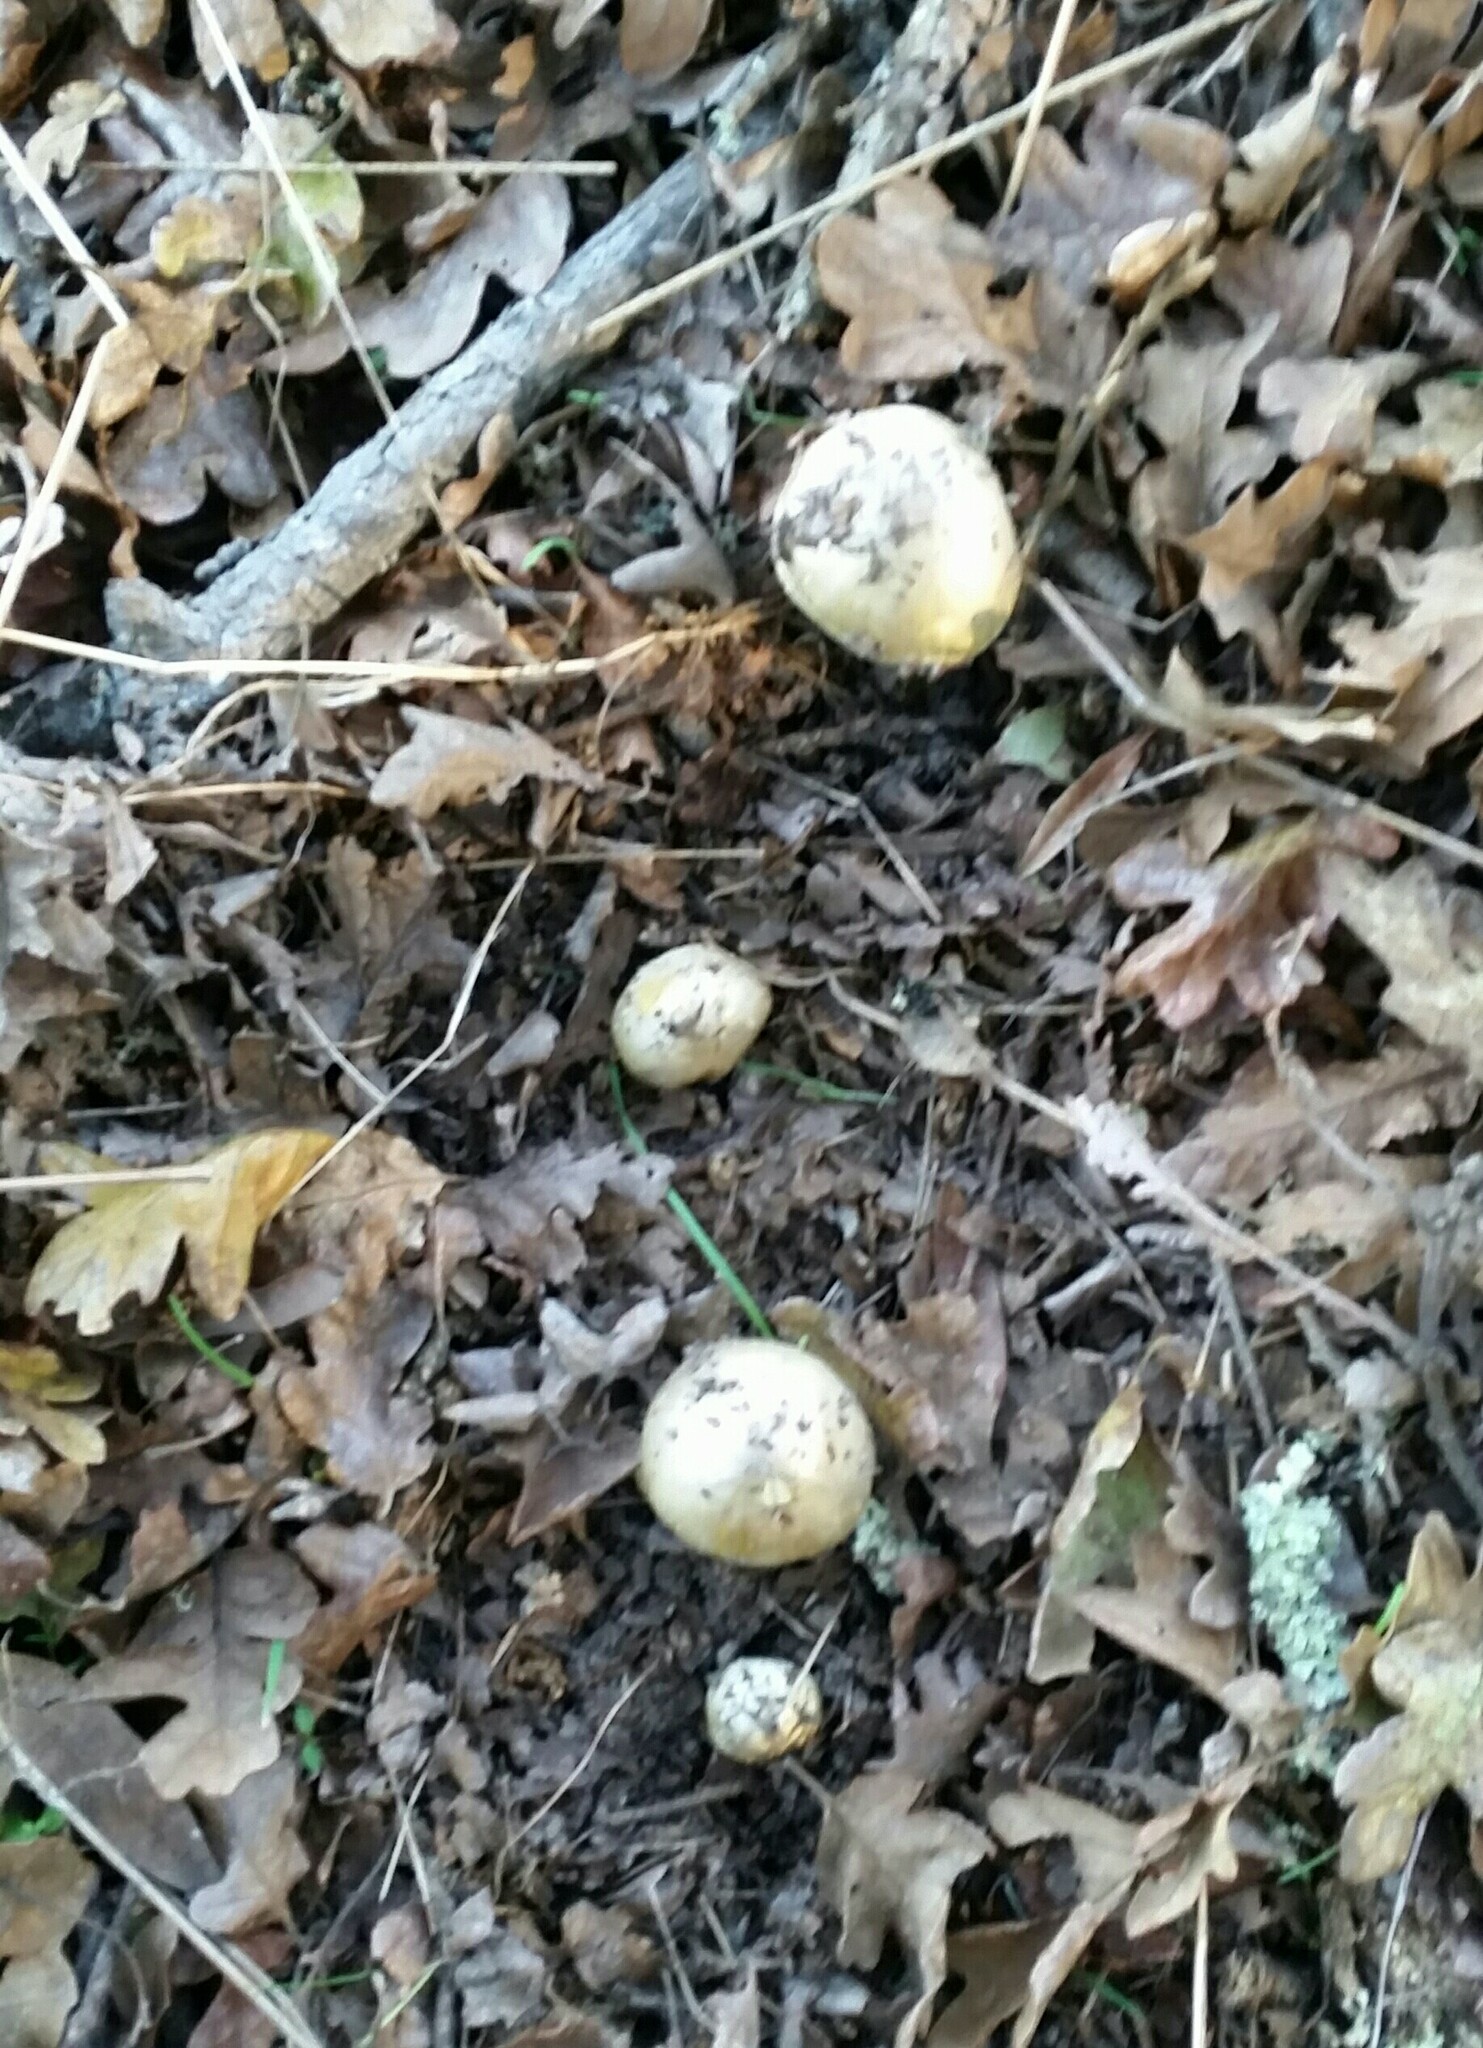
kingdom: Fungi
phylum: Basidiomycota
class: Agaricomycetes
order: Agaricales
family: Amanitaceae
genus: Amanita
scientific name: Amanita phalloides
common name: Death cap
